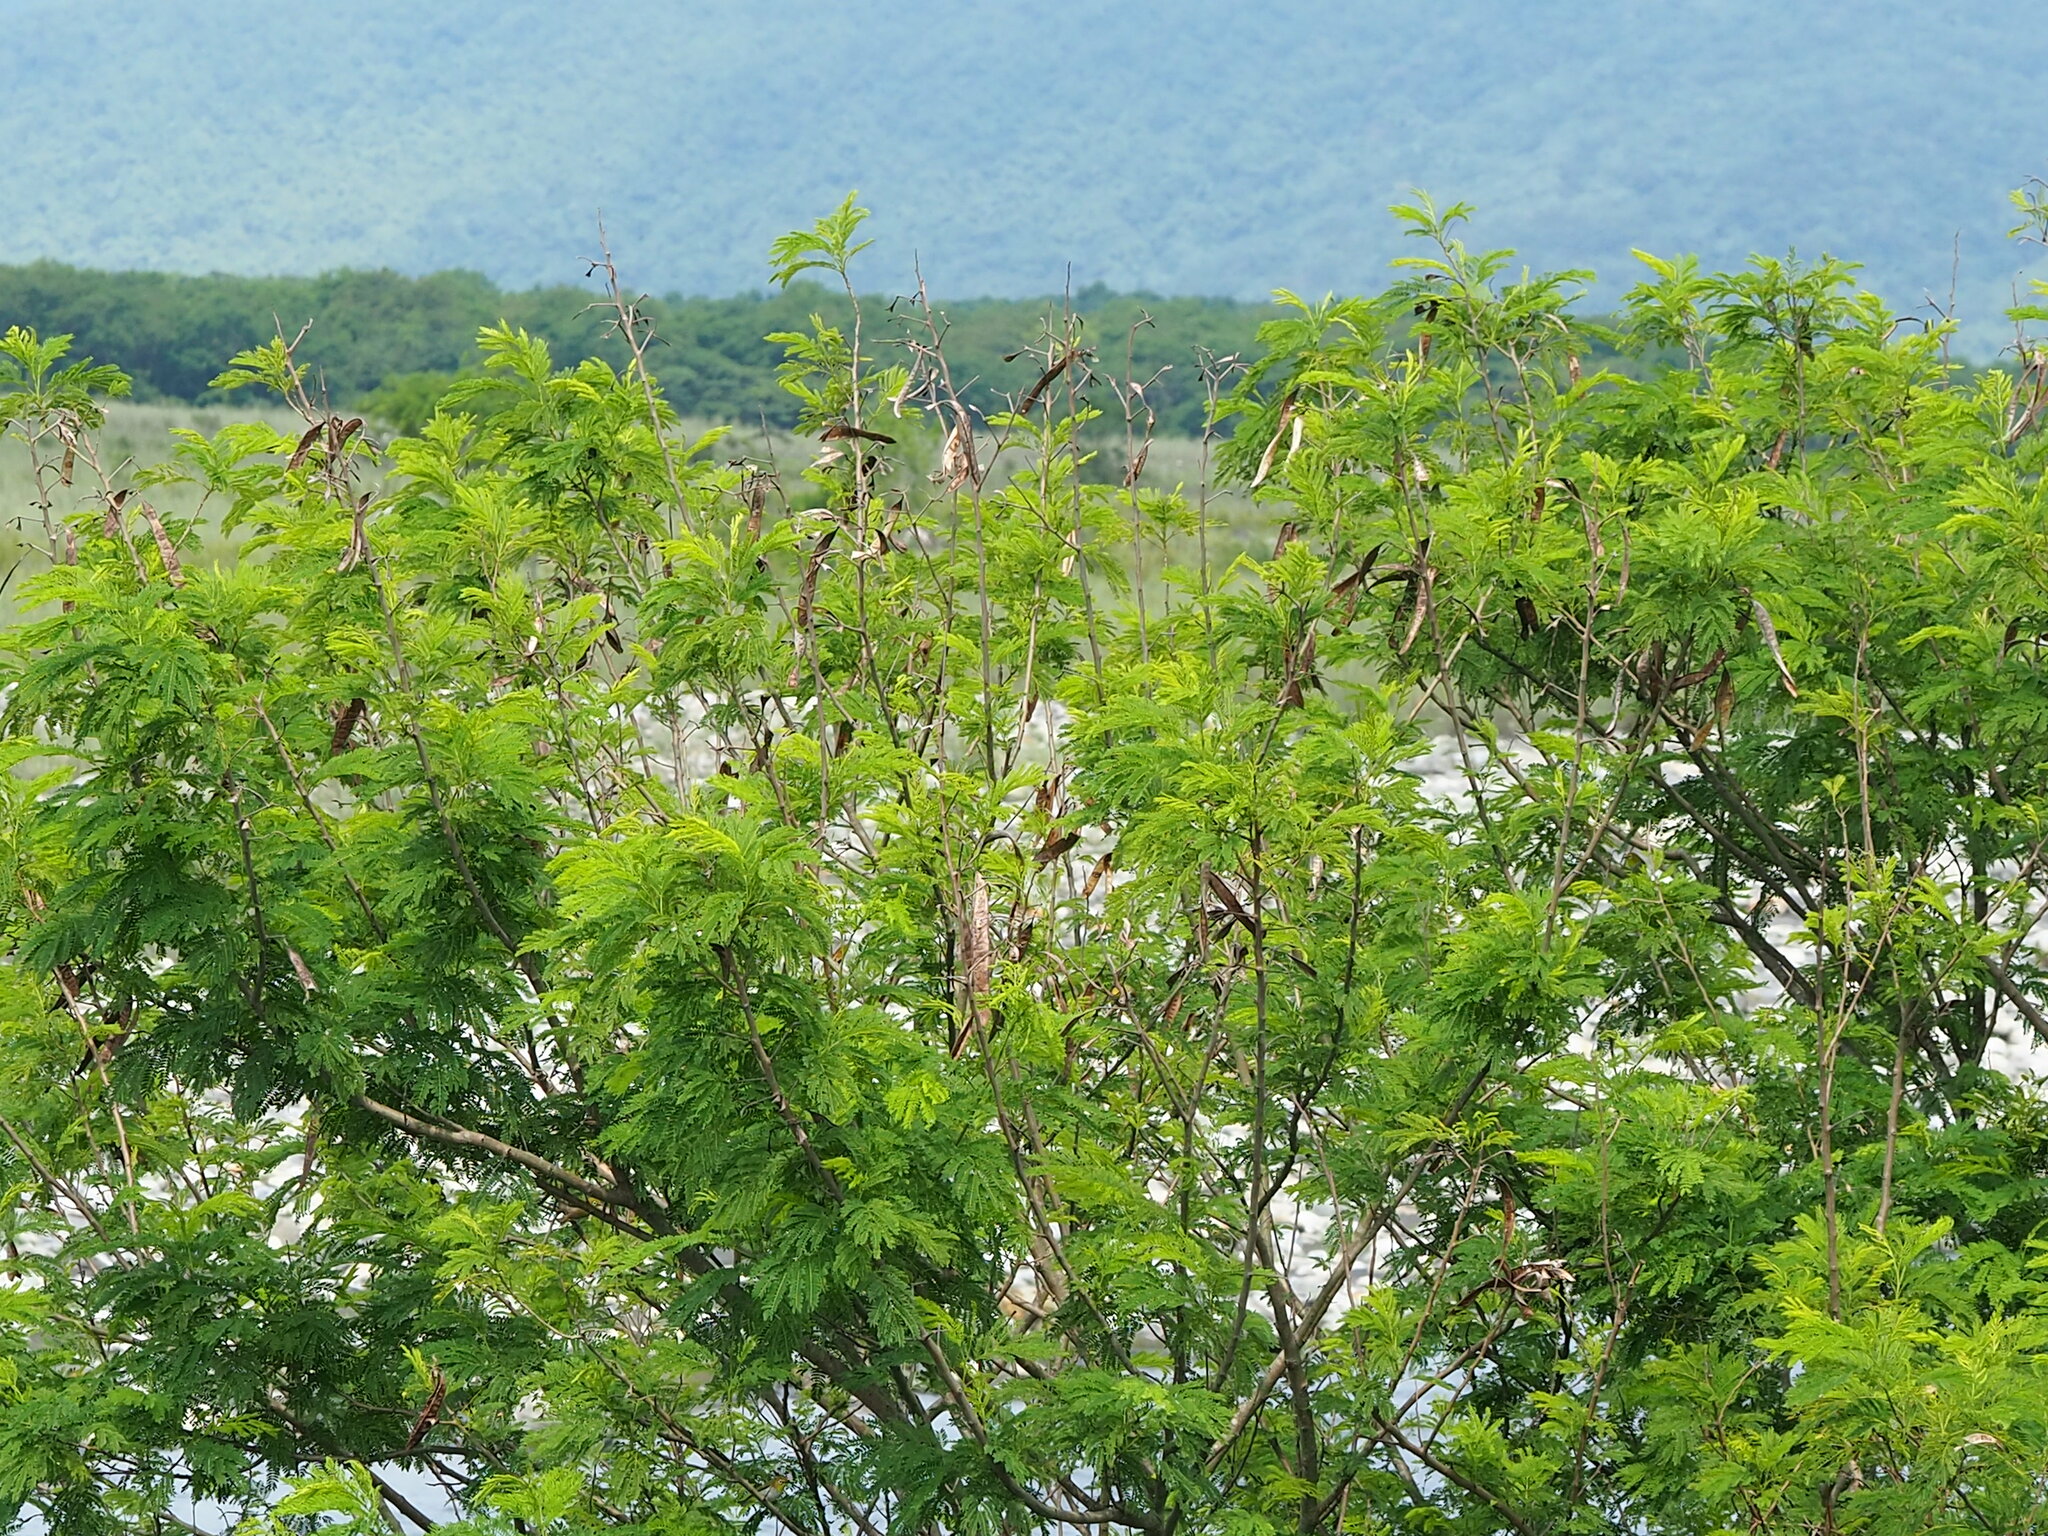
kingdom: Plantae
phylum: Tracheophyta
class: Magnoliopsida
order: Fabales
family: Fabaceae
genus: Leucaena
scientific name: Leucaena leucocephala
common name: White leadtree
